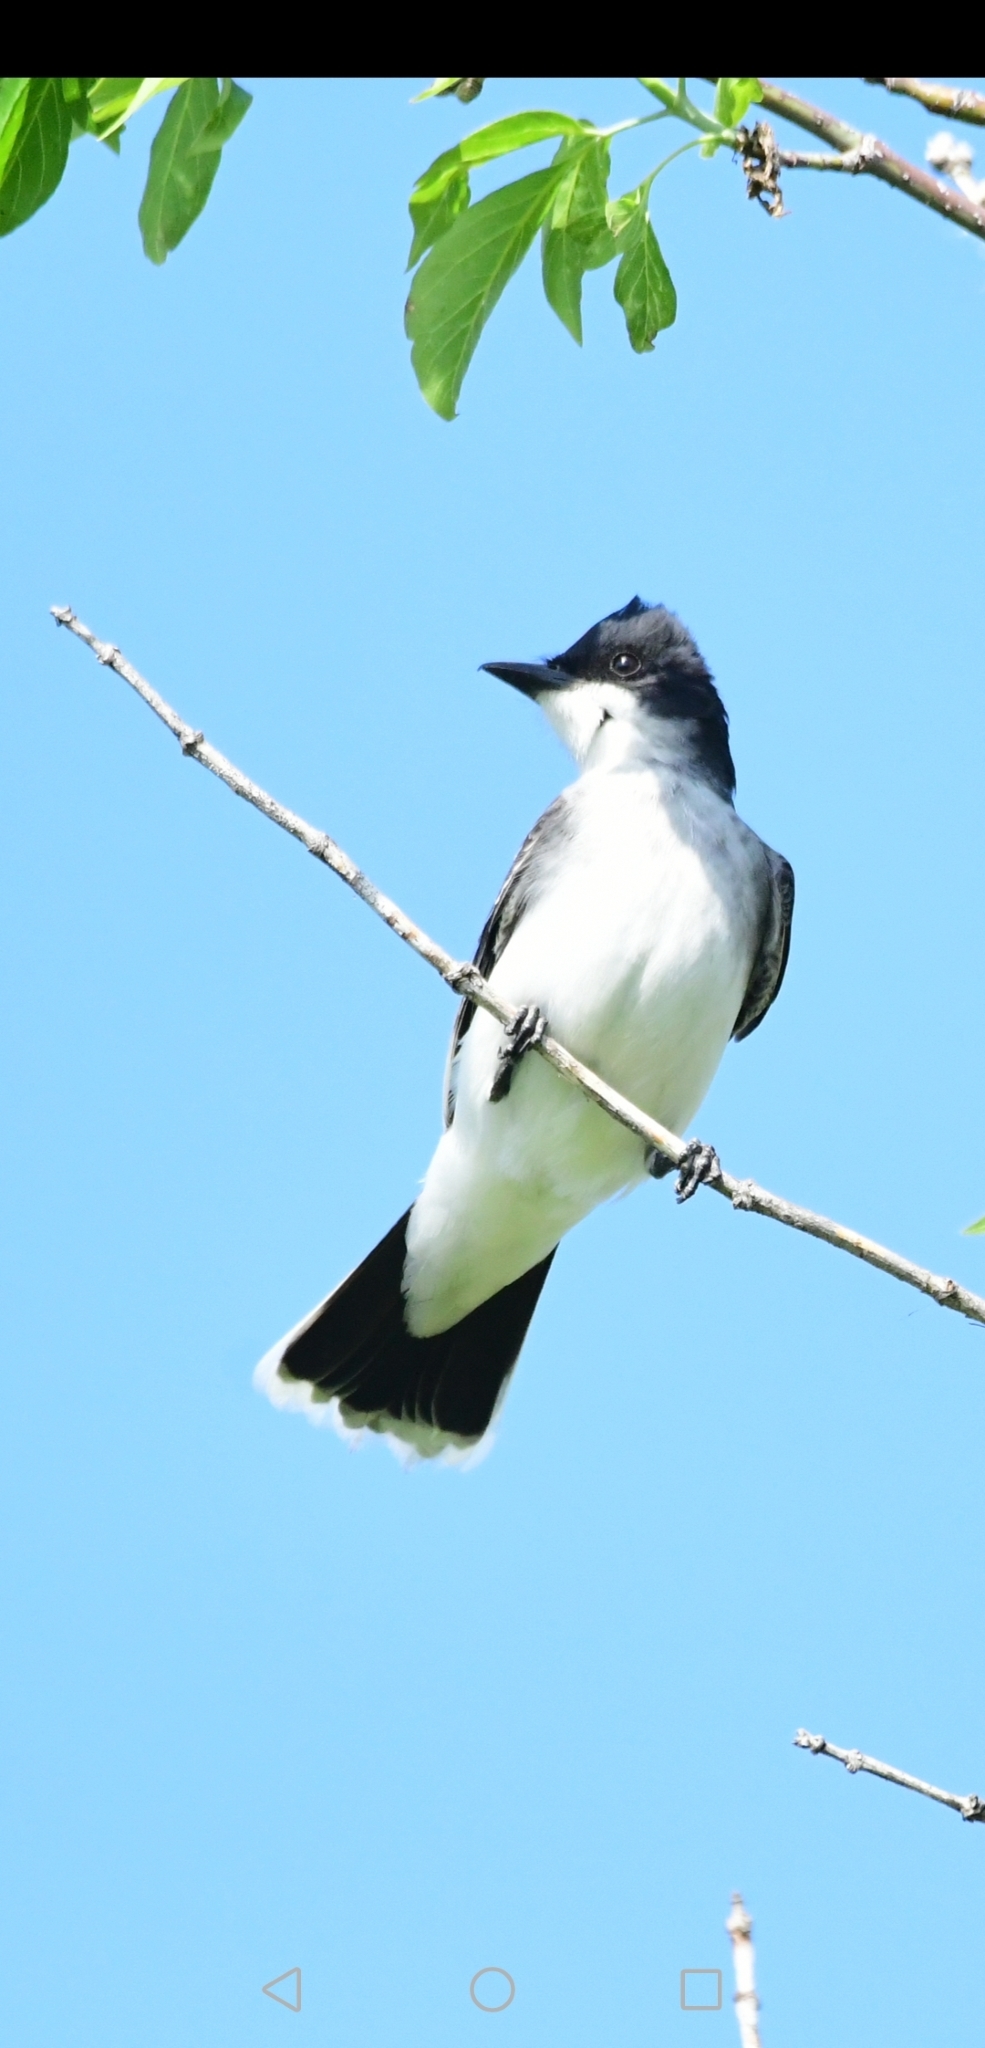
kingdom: Animalia
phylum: Chordata
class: Aves
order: Passeriformes
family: Tyrannidae
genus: Tyrannus
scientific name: Tyrannus tyrannus
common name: Eastern kingbird
